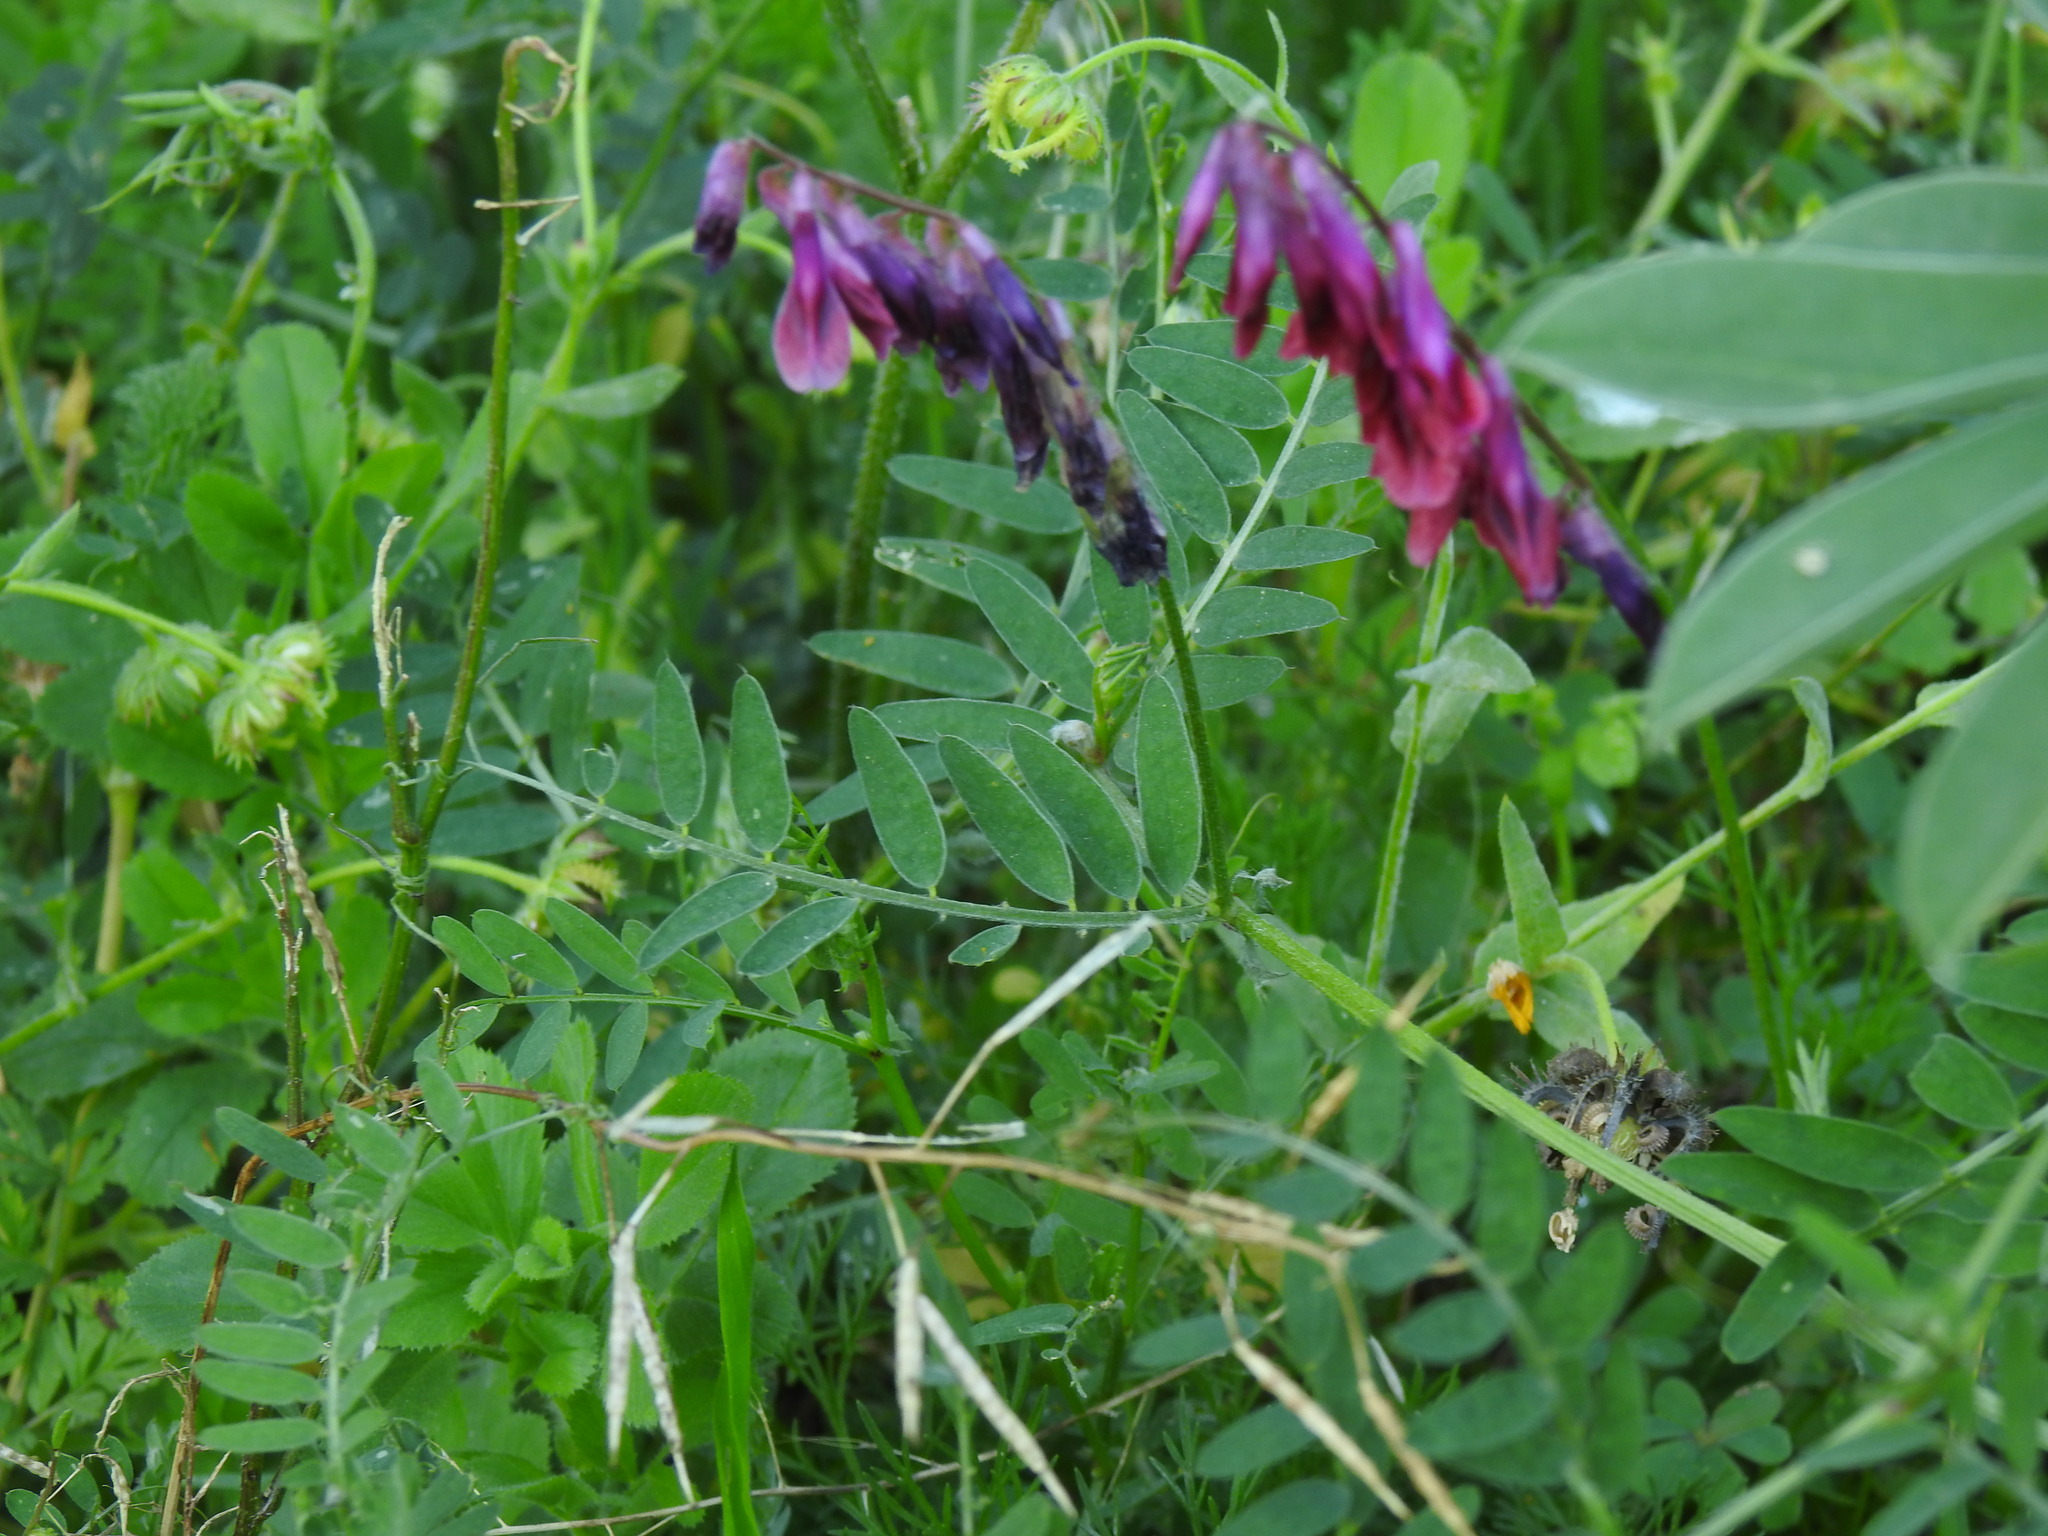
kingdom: Plantae
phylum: Tracheophyta
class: Magnoliopsida
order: Fabales
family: Fabaceae
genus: Vicia
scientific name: Vicia benghalensis
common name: Purple vetch
